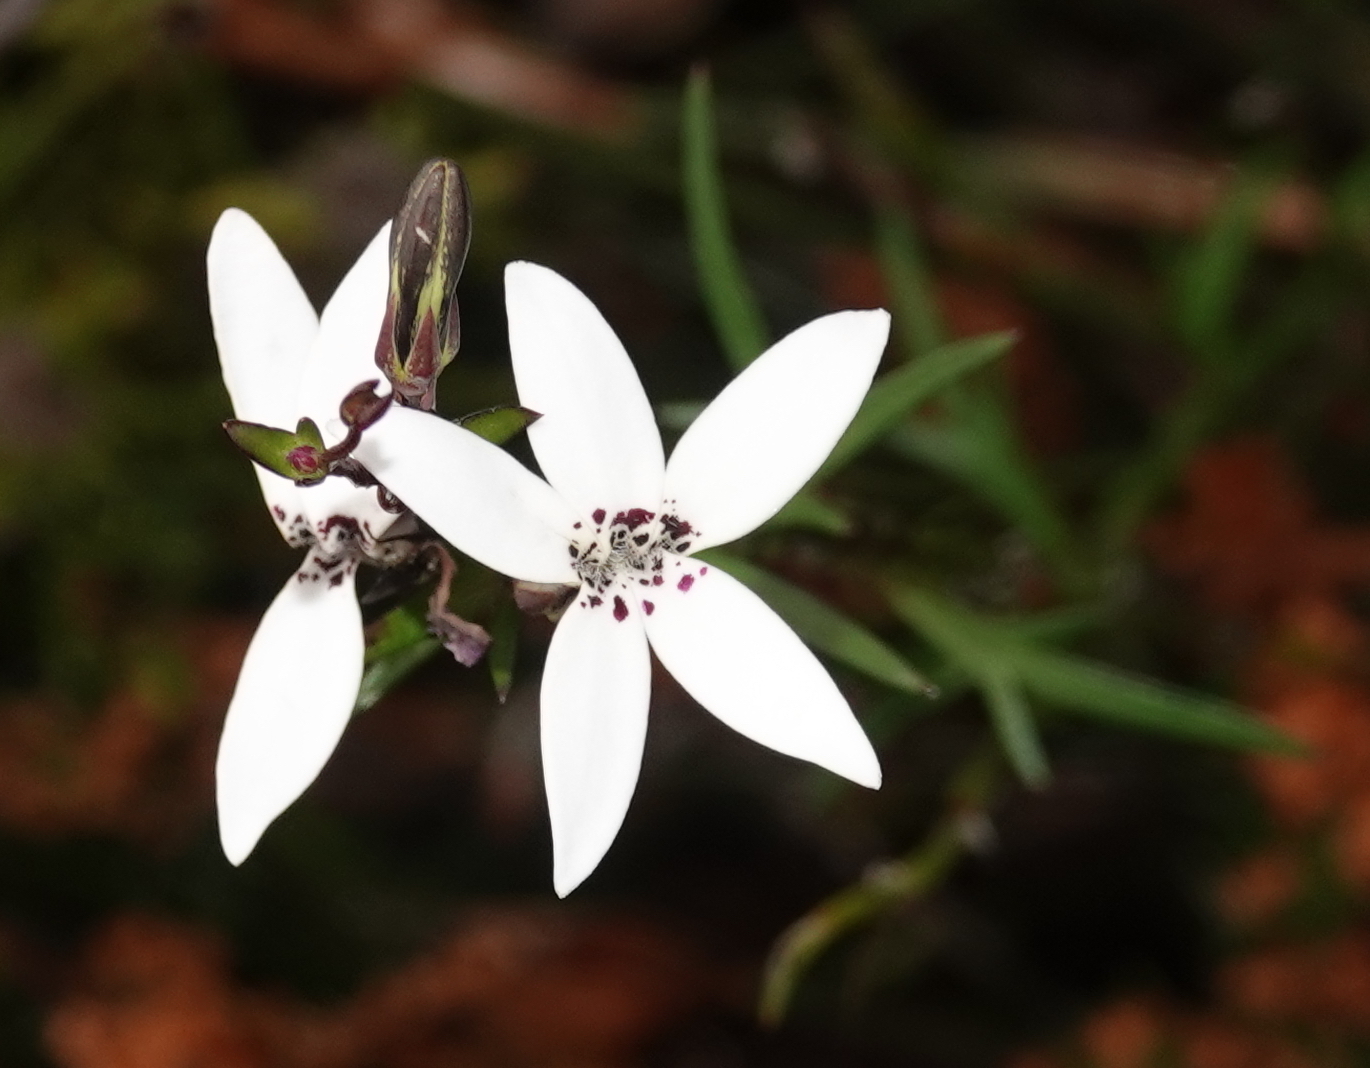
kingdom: Plantae
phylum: Tracheophyta
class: Magnoliopsida
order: Asterales
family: Campanulaceae
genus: Cyphia
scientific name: Cyphia volubilis
